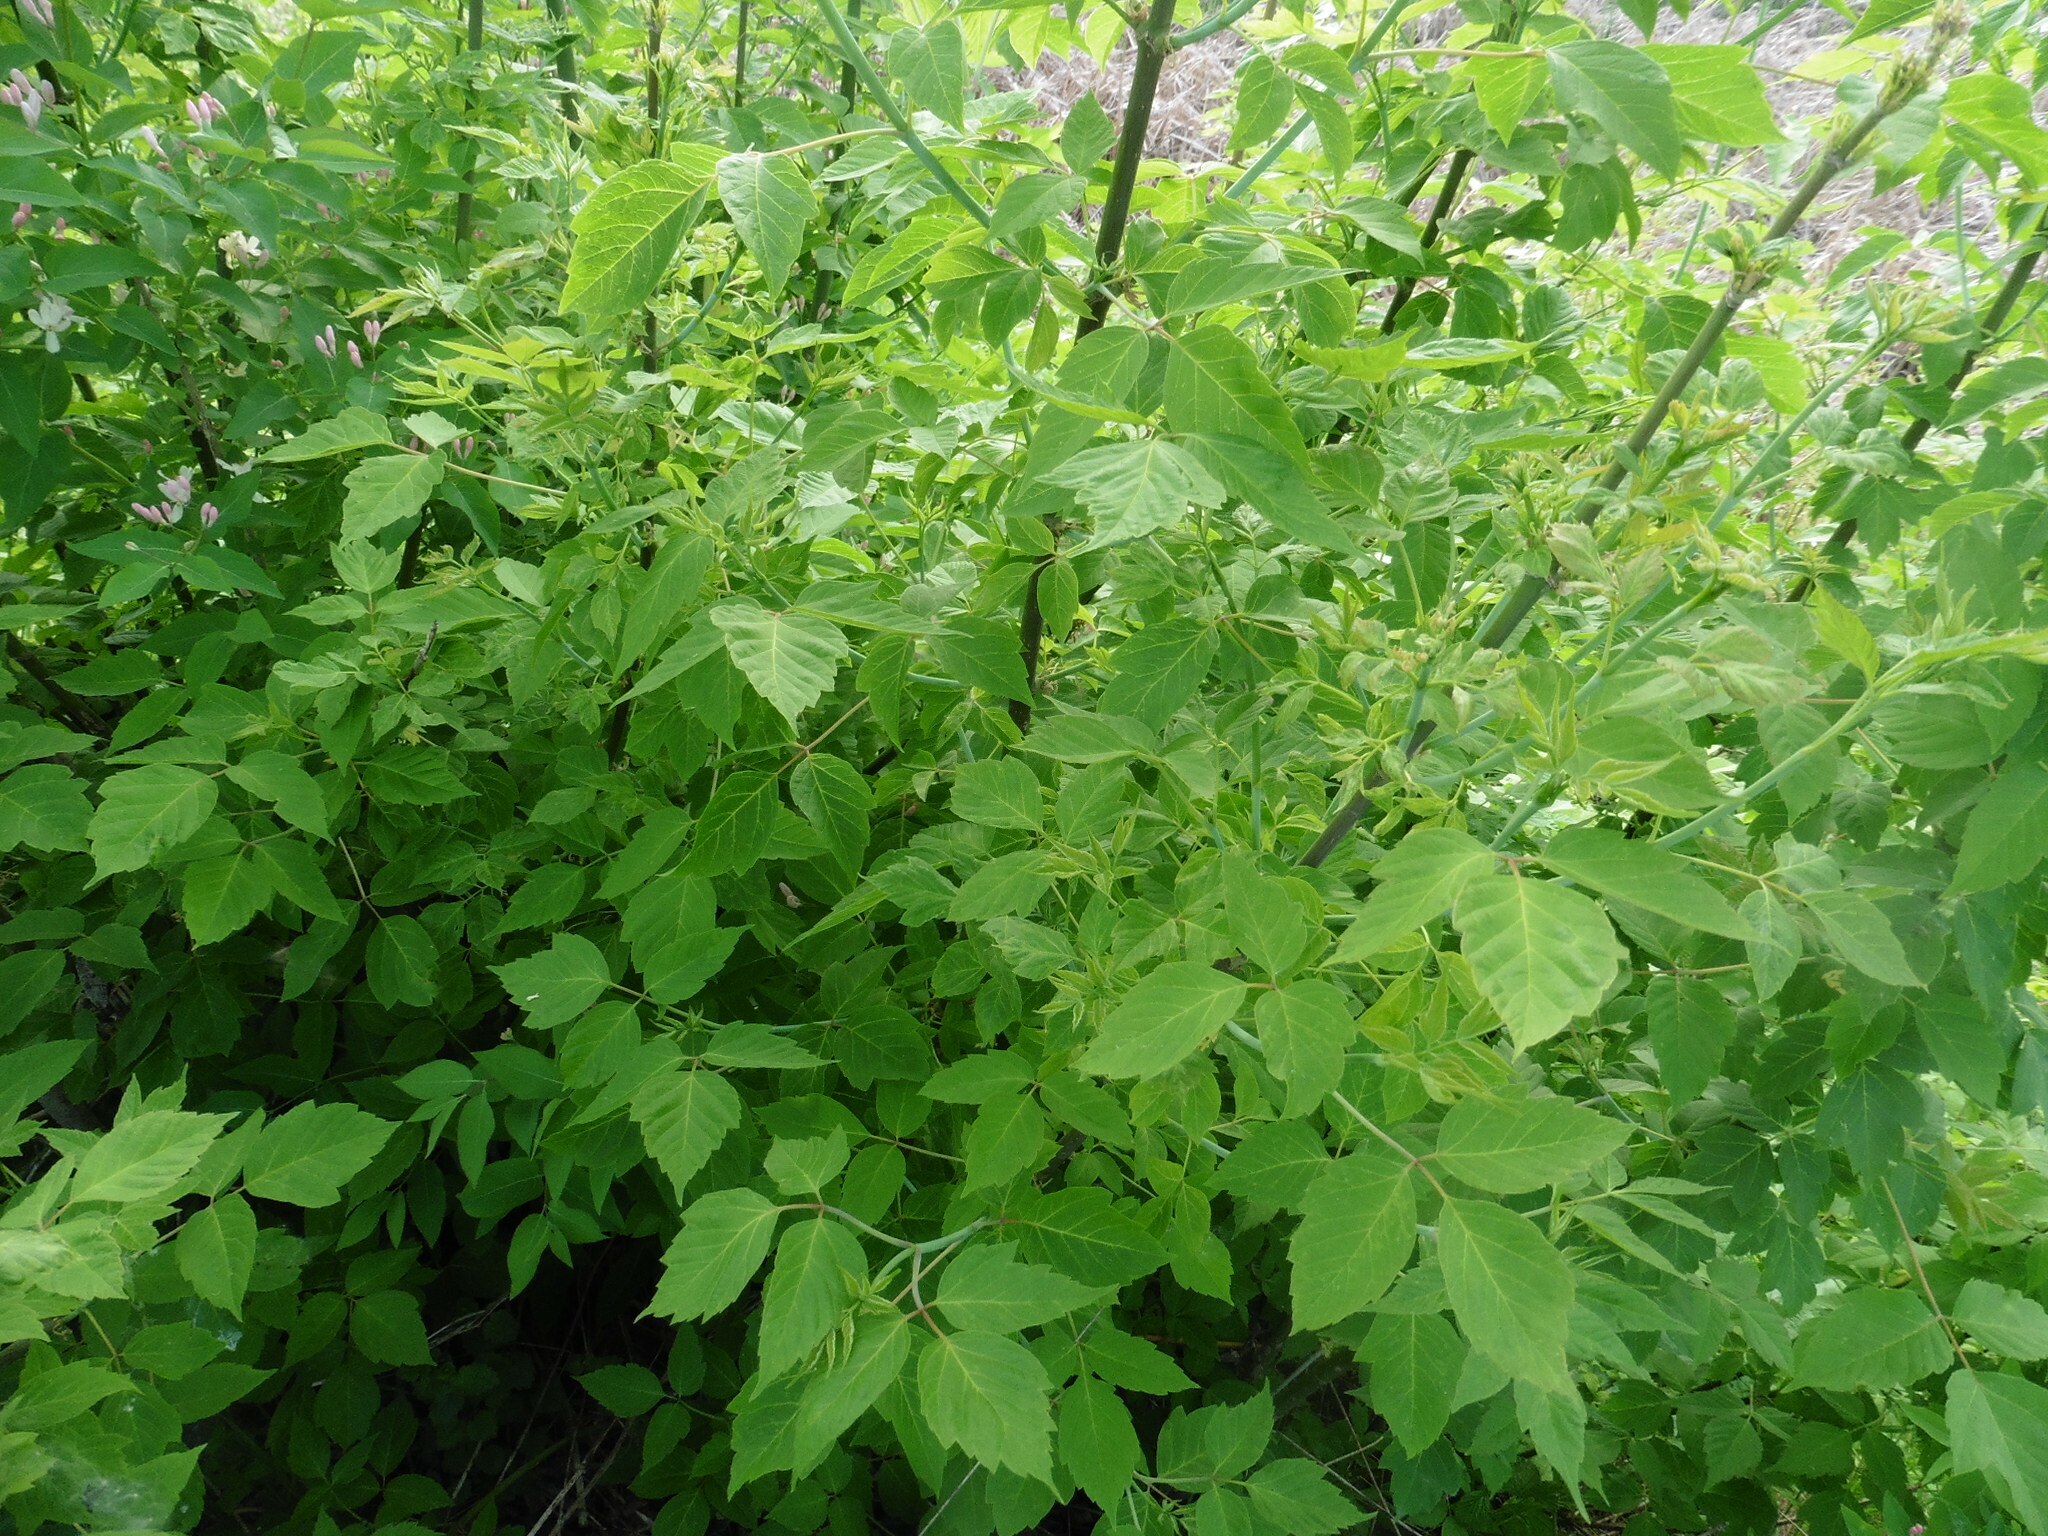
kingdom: Plantae
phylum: Tracheophyta
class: Magnoliopsida
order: Sapindales
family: Sapindaceae
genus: Acer
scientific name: Acer negundo
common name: Ashleaf maple
